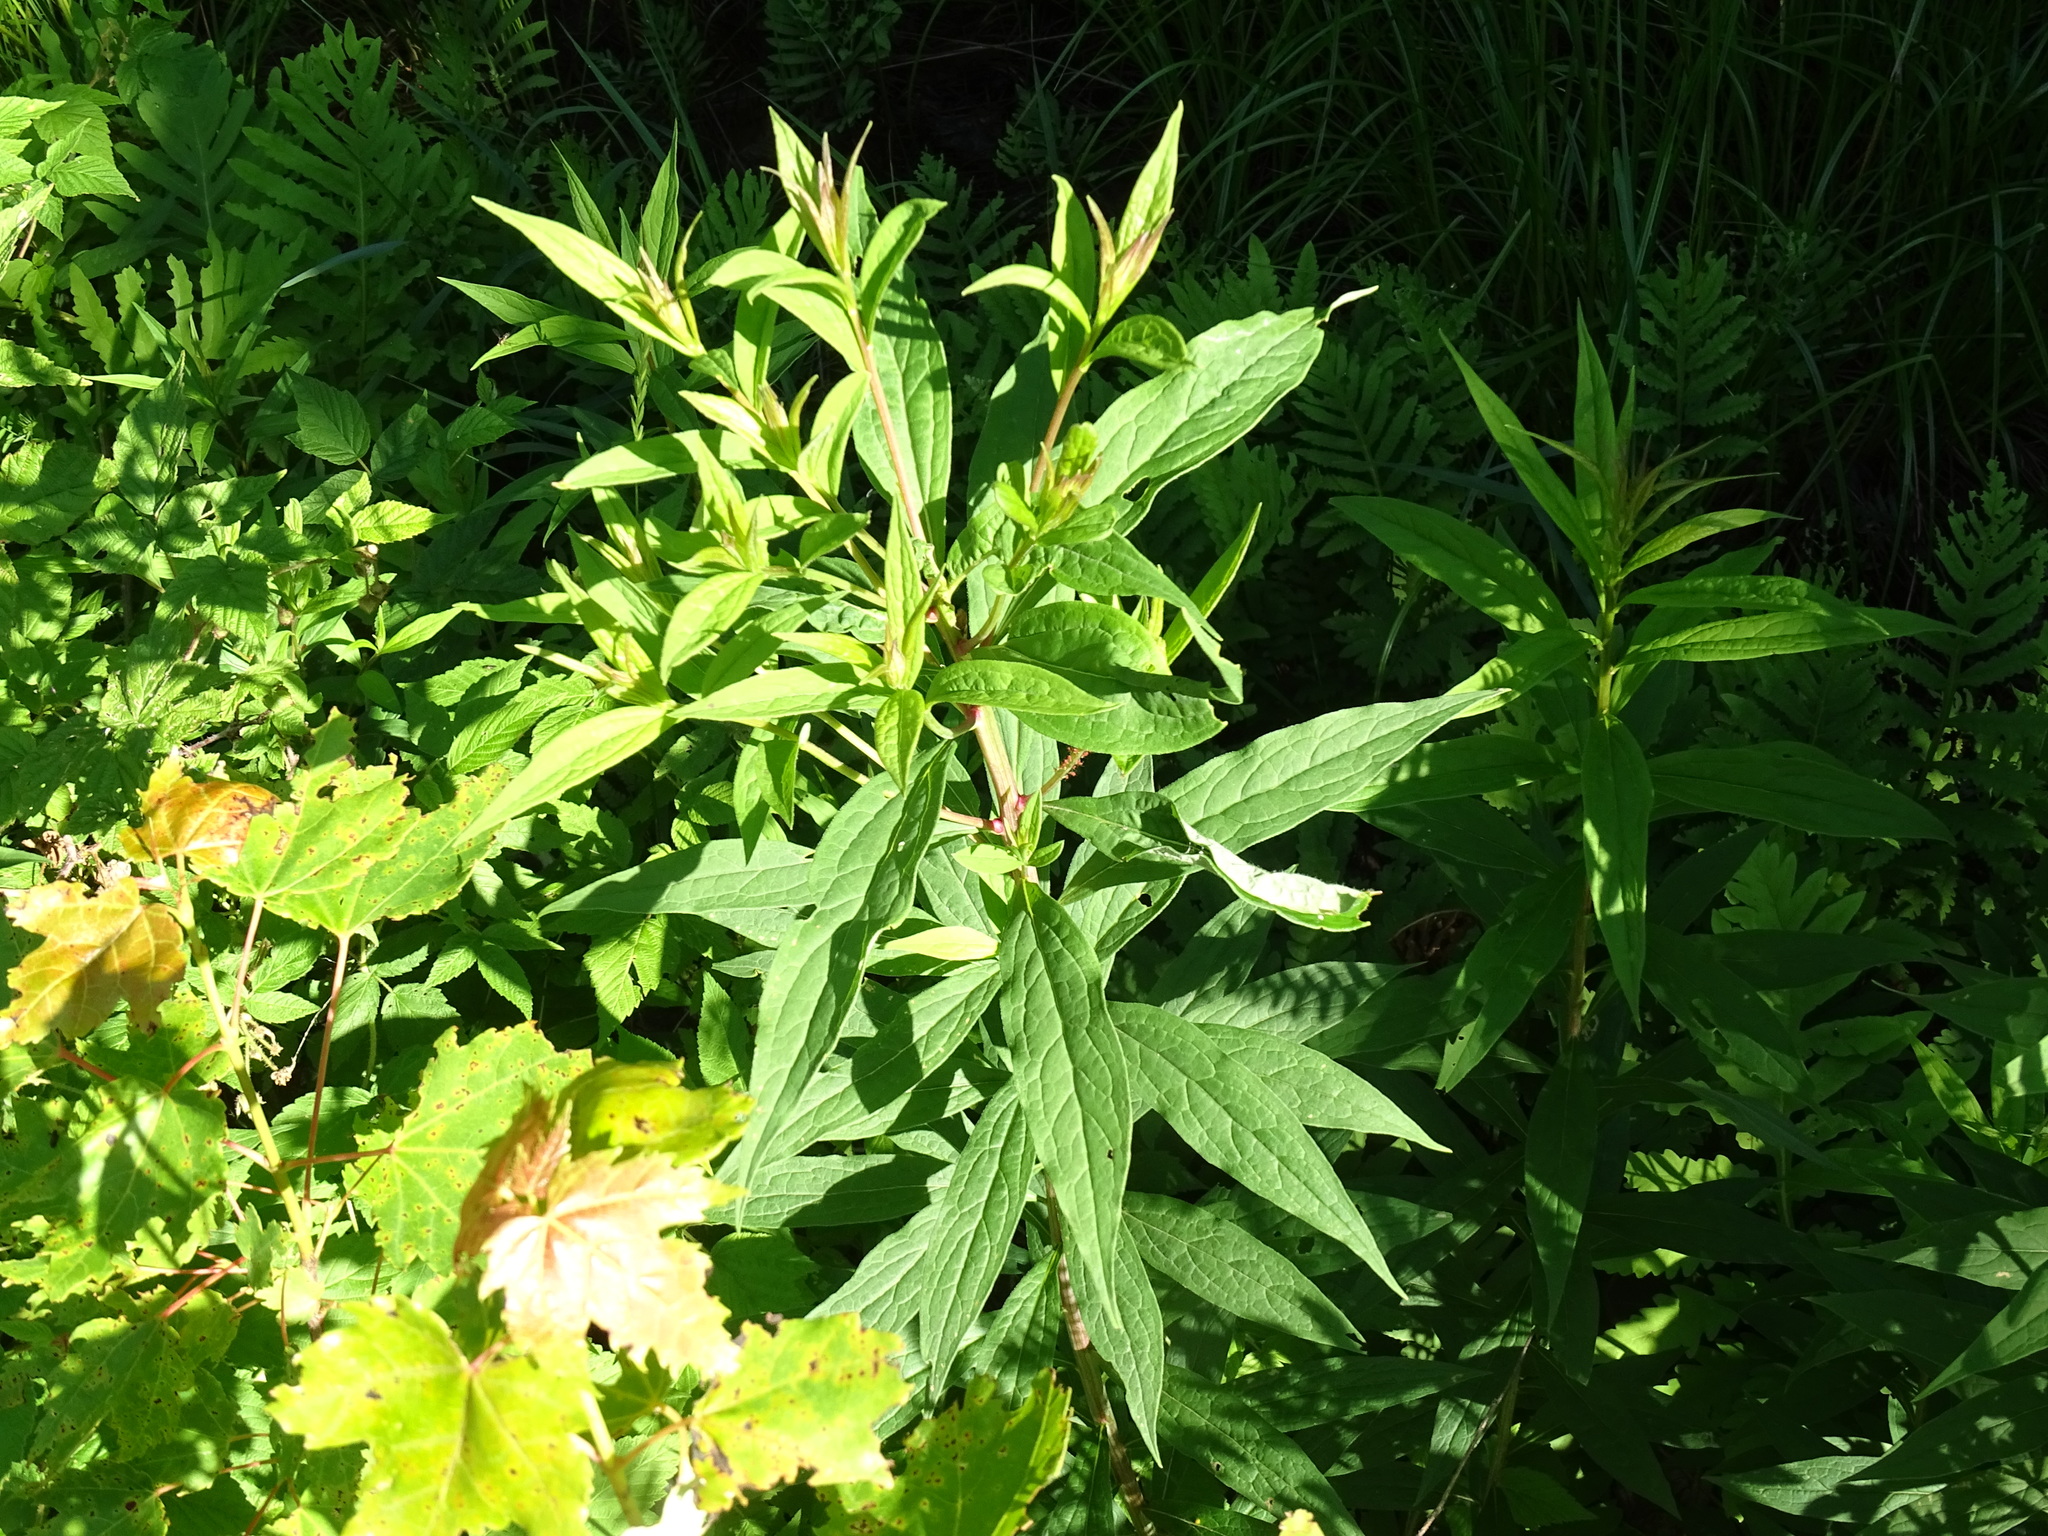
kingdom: Plantae
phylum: Tracheophyta
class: Magnoliopsida
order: Asterales
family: Asteraceae
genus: Doellingeria
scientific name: Doellingeria umbellata
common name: Flat-top white aster
